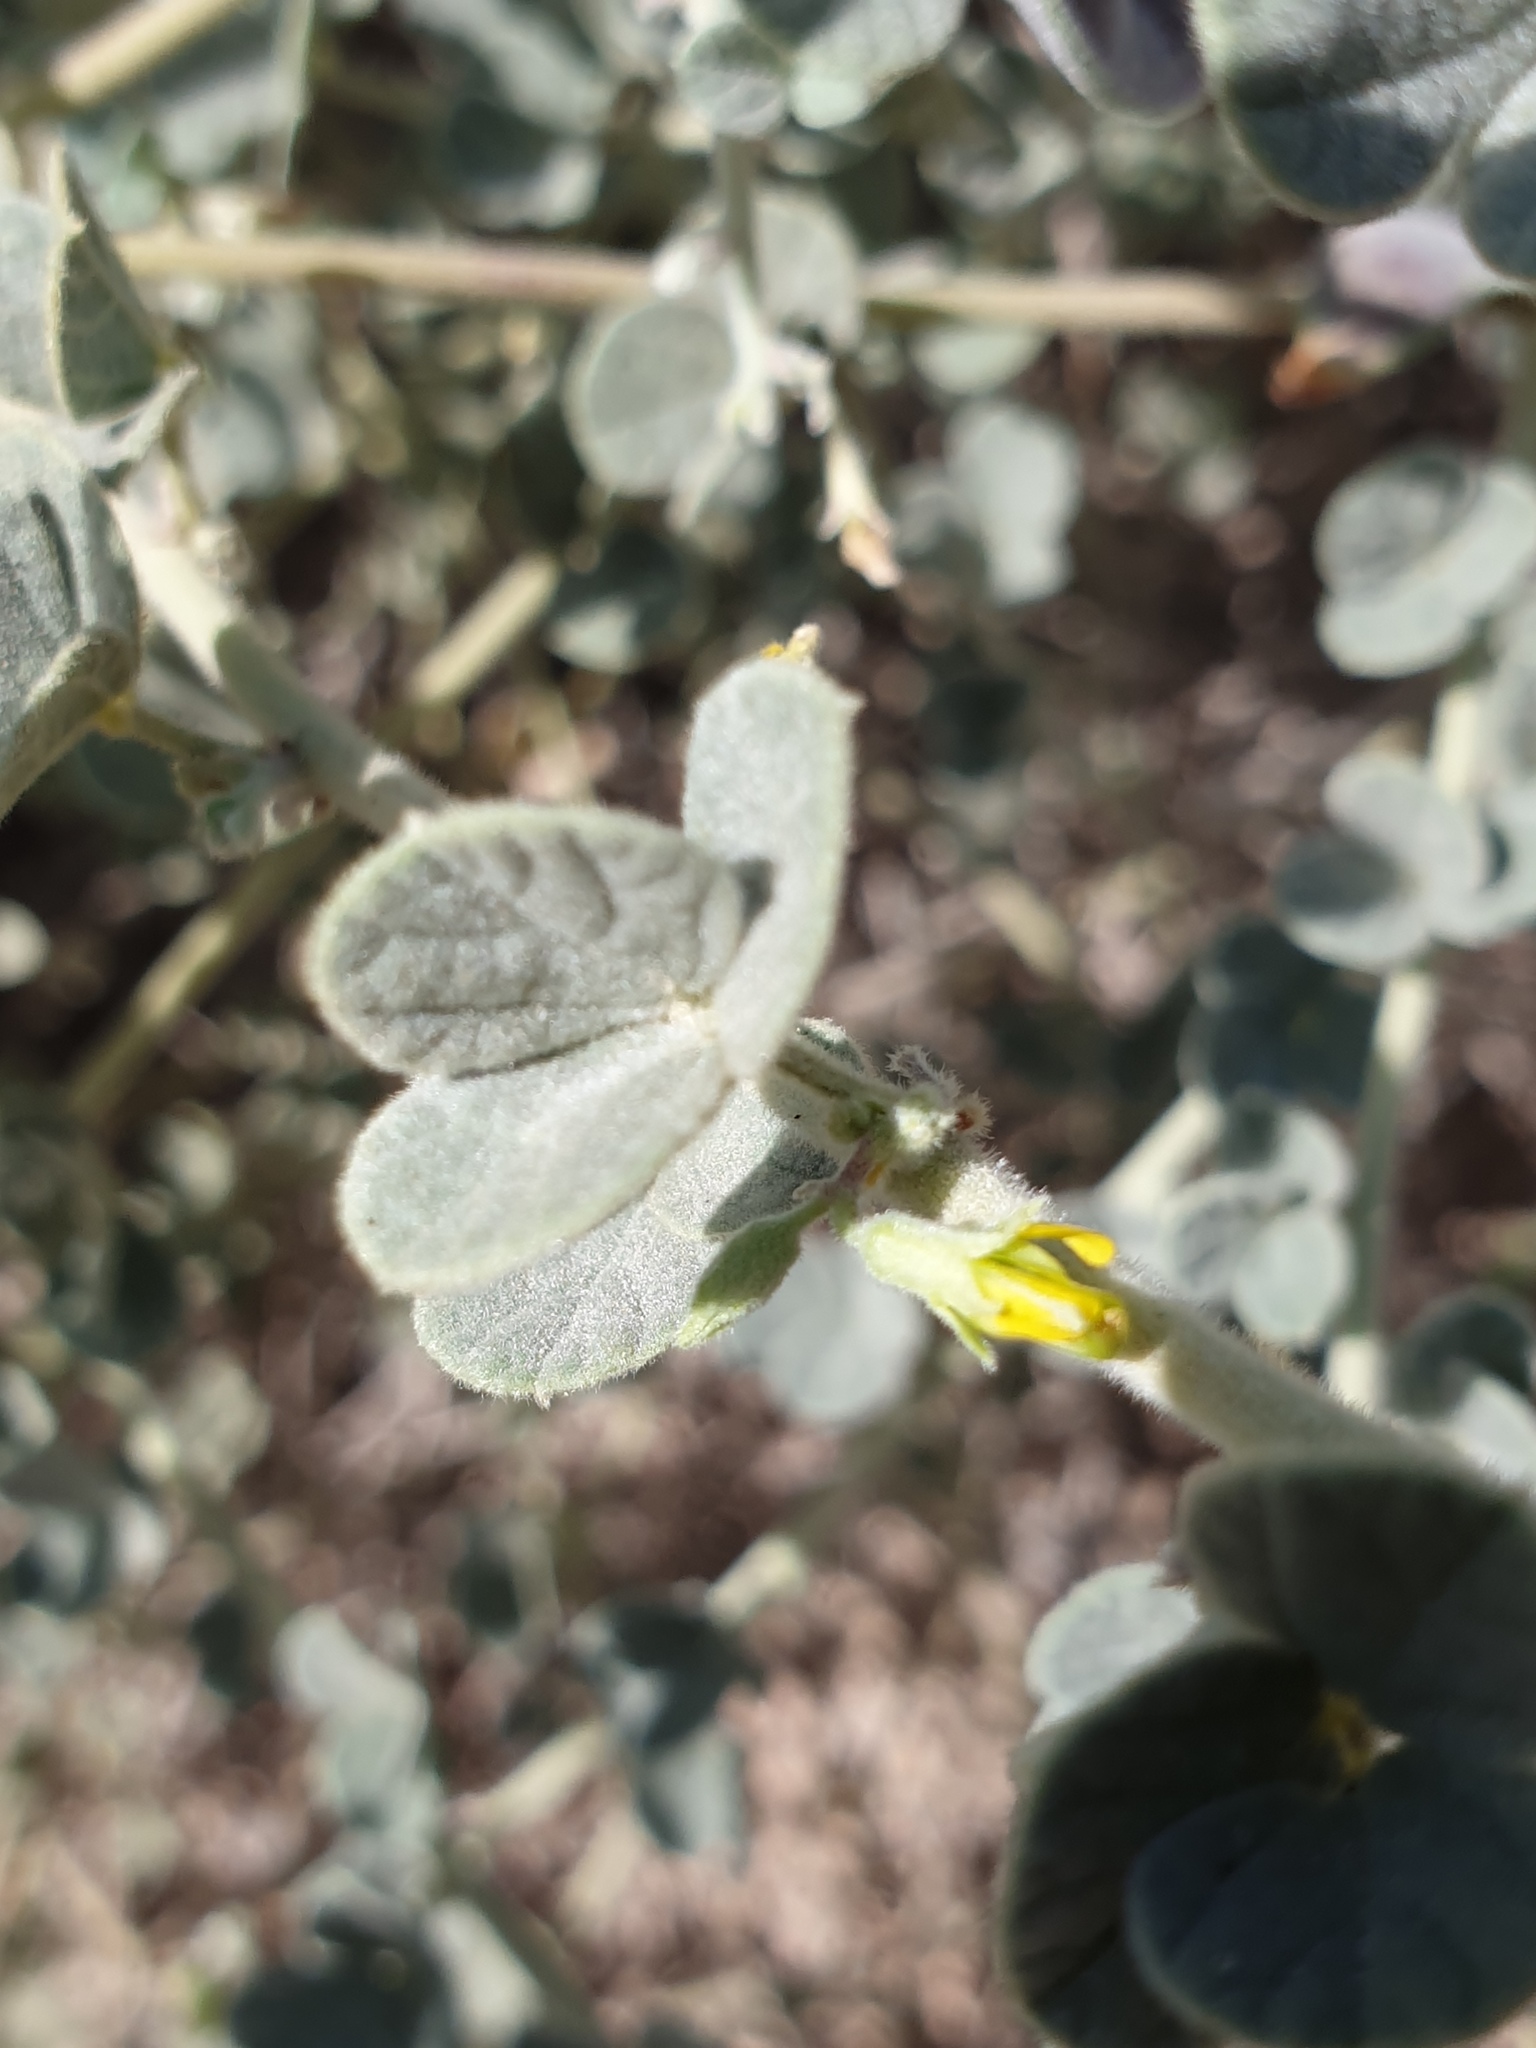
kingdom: Plantae
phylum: Tracheophyta
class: Magnoliopsida
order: Fabales
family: Fabaceae
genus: Rhynchosia
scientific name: Rhynchosia schimperi
